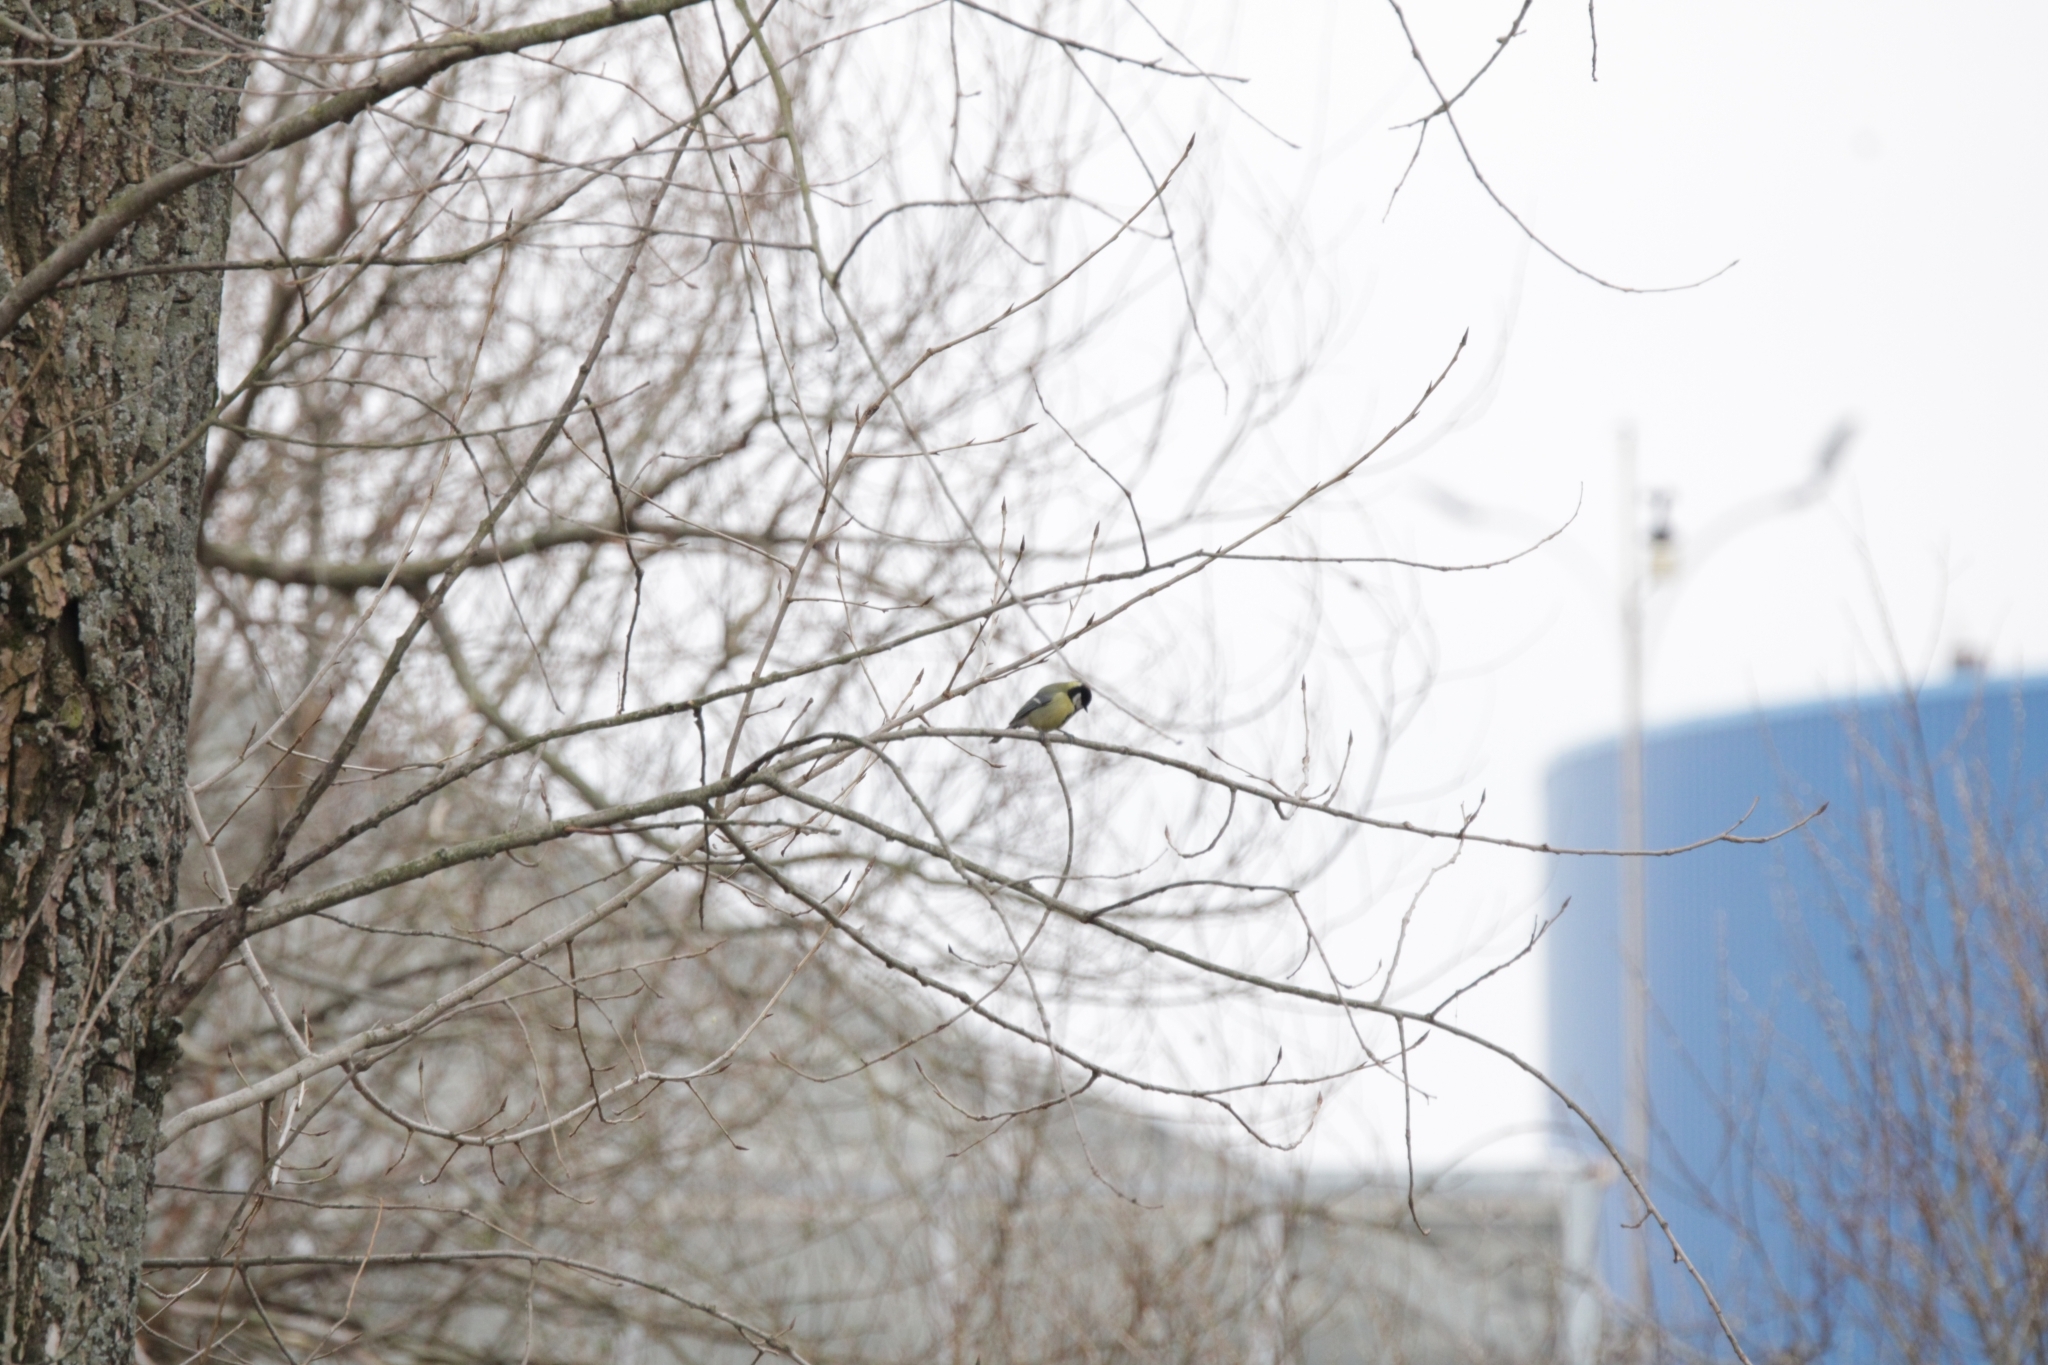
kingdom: Animalia
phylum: Chordata
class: Aves
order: Passeriformes
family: Paridae
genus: Parus
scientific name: Parus major
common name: Great tit
